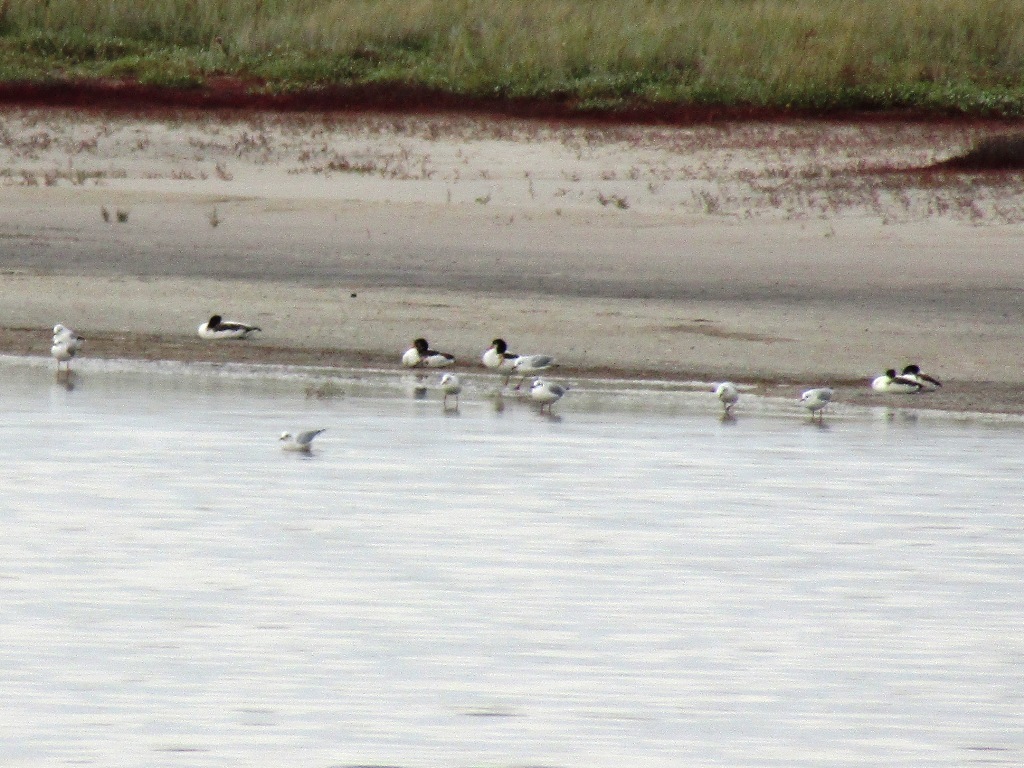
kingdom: Animalia
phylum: Chordata
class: Aves
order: Anseriformes
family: Anatidae
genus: Tadorna
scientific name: Tadorna tadorna
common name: Common shelduck
